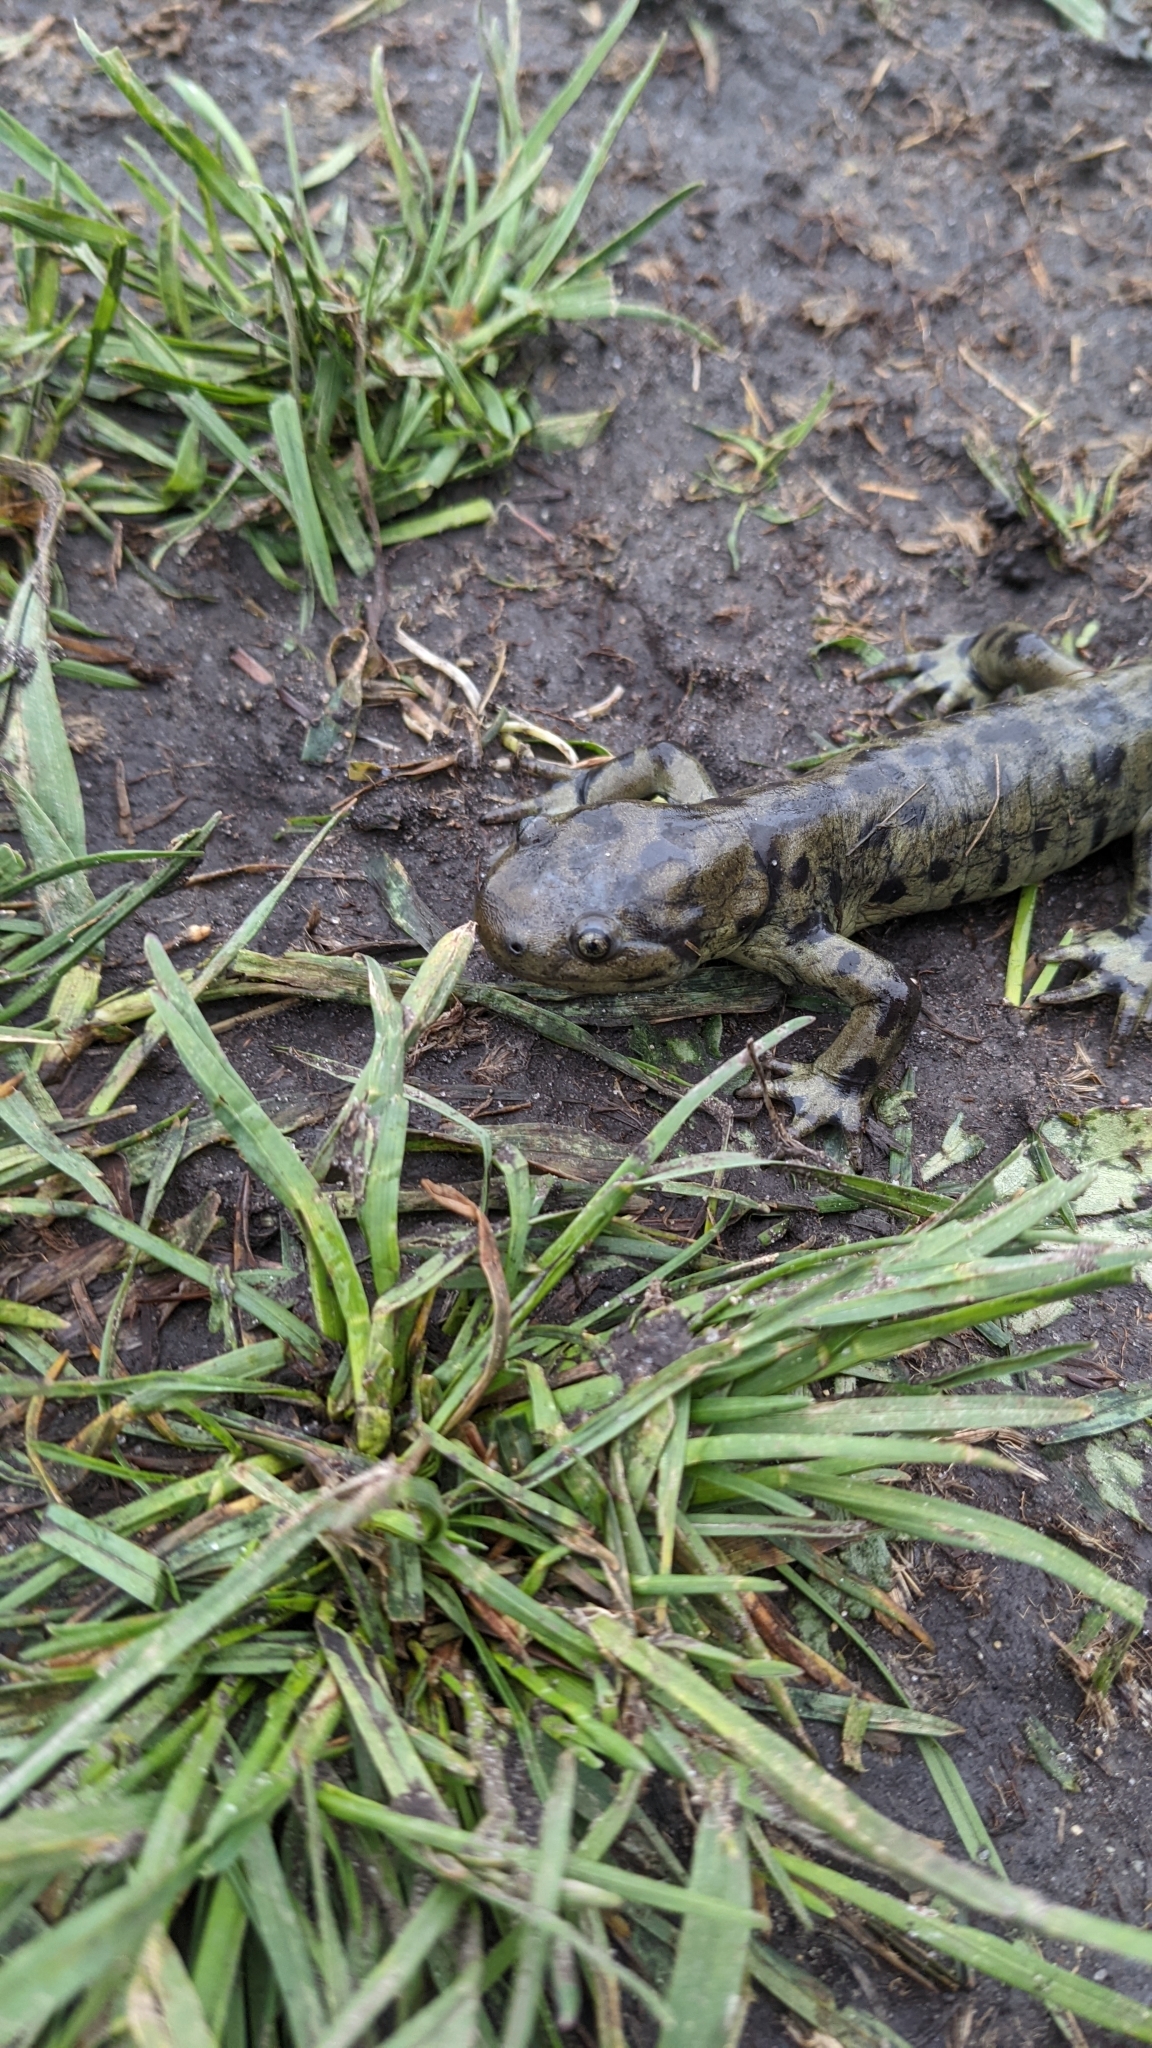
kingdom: Animalia
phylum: Chordata
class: Amphibia
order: Caudata
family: Ambystomatidae
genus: Ambystoma
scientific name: Ambystoma mavortium
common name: Western tiger salamander
